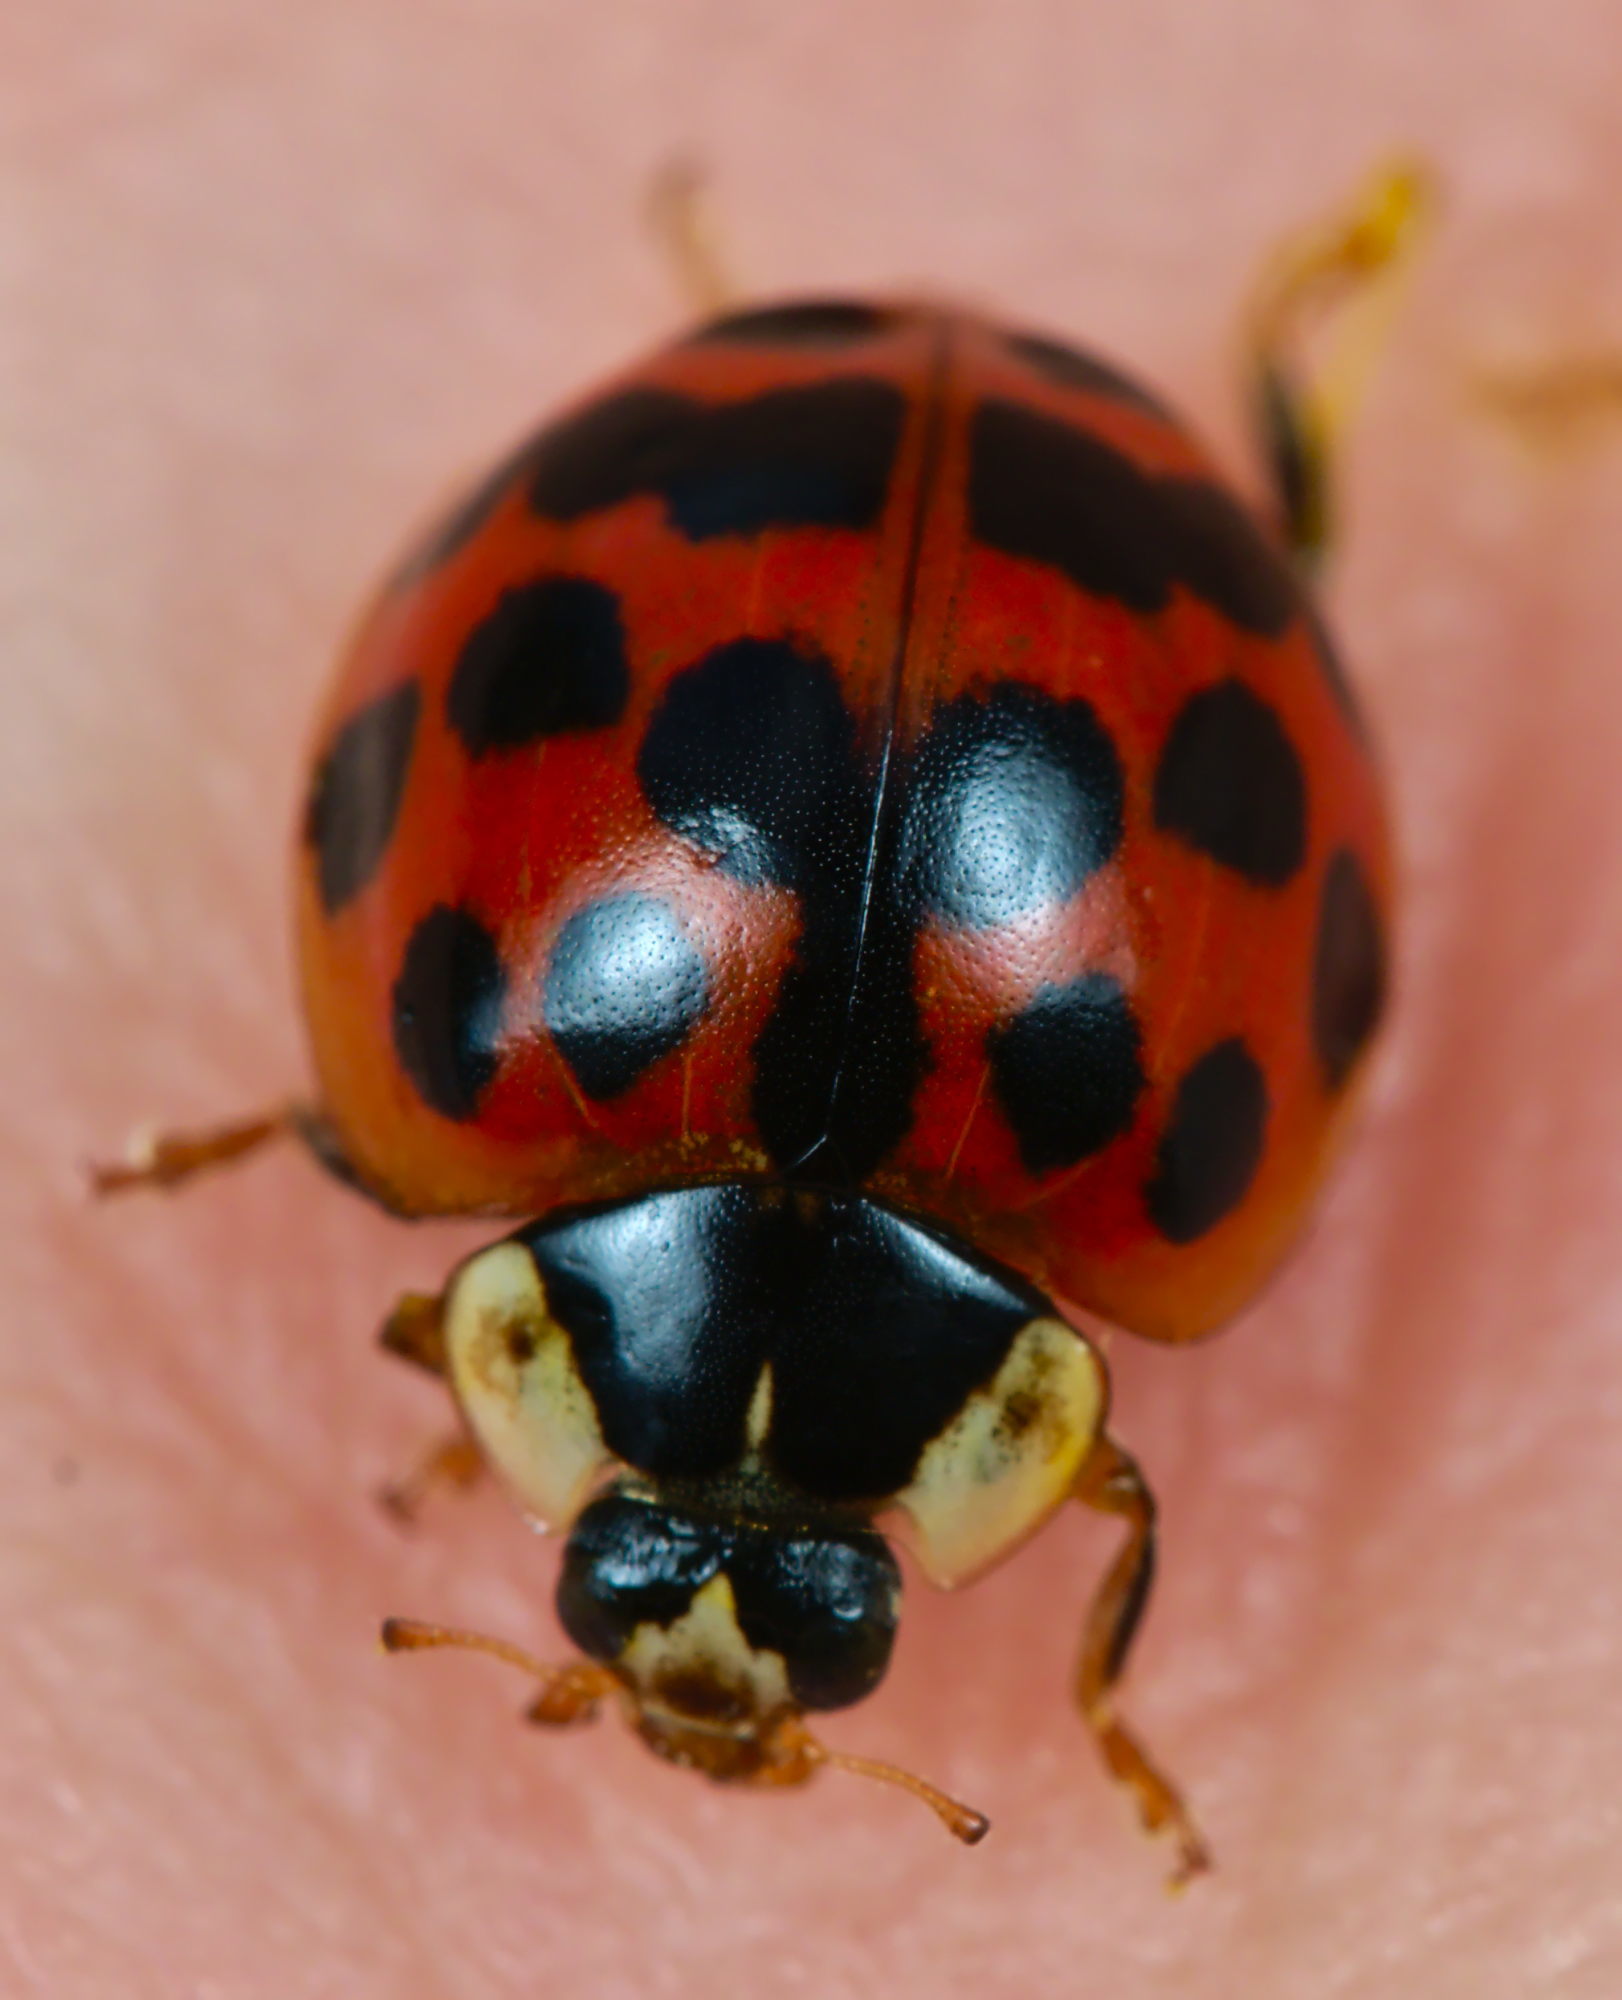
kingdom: Animalia
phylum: Arthropoda
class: Insecta
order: Coleoptera
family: Coccinellidae
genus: Harmonia
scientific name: Harmonia axyridis
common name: Harlequin ladybird
